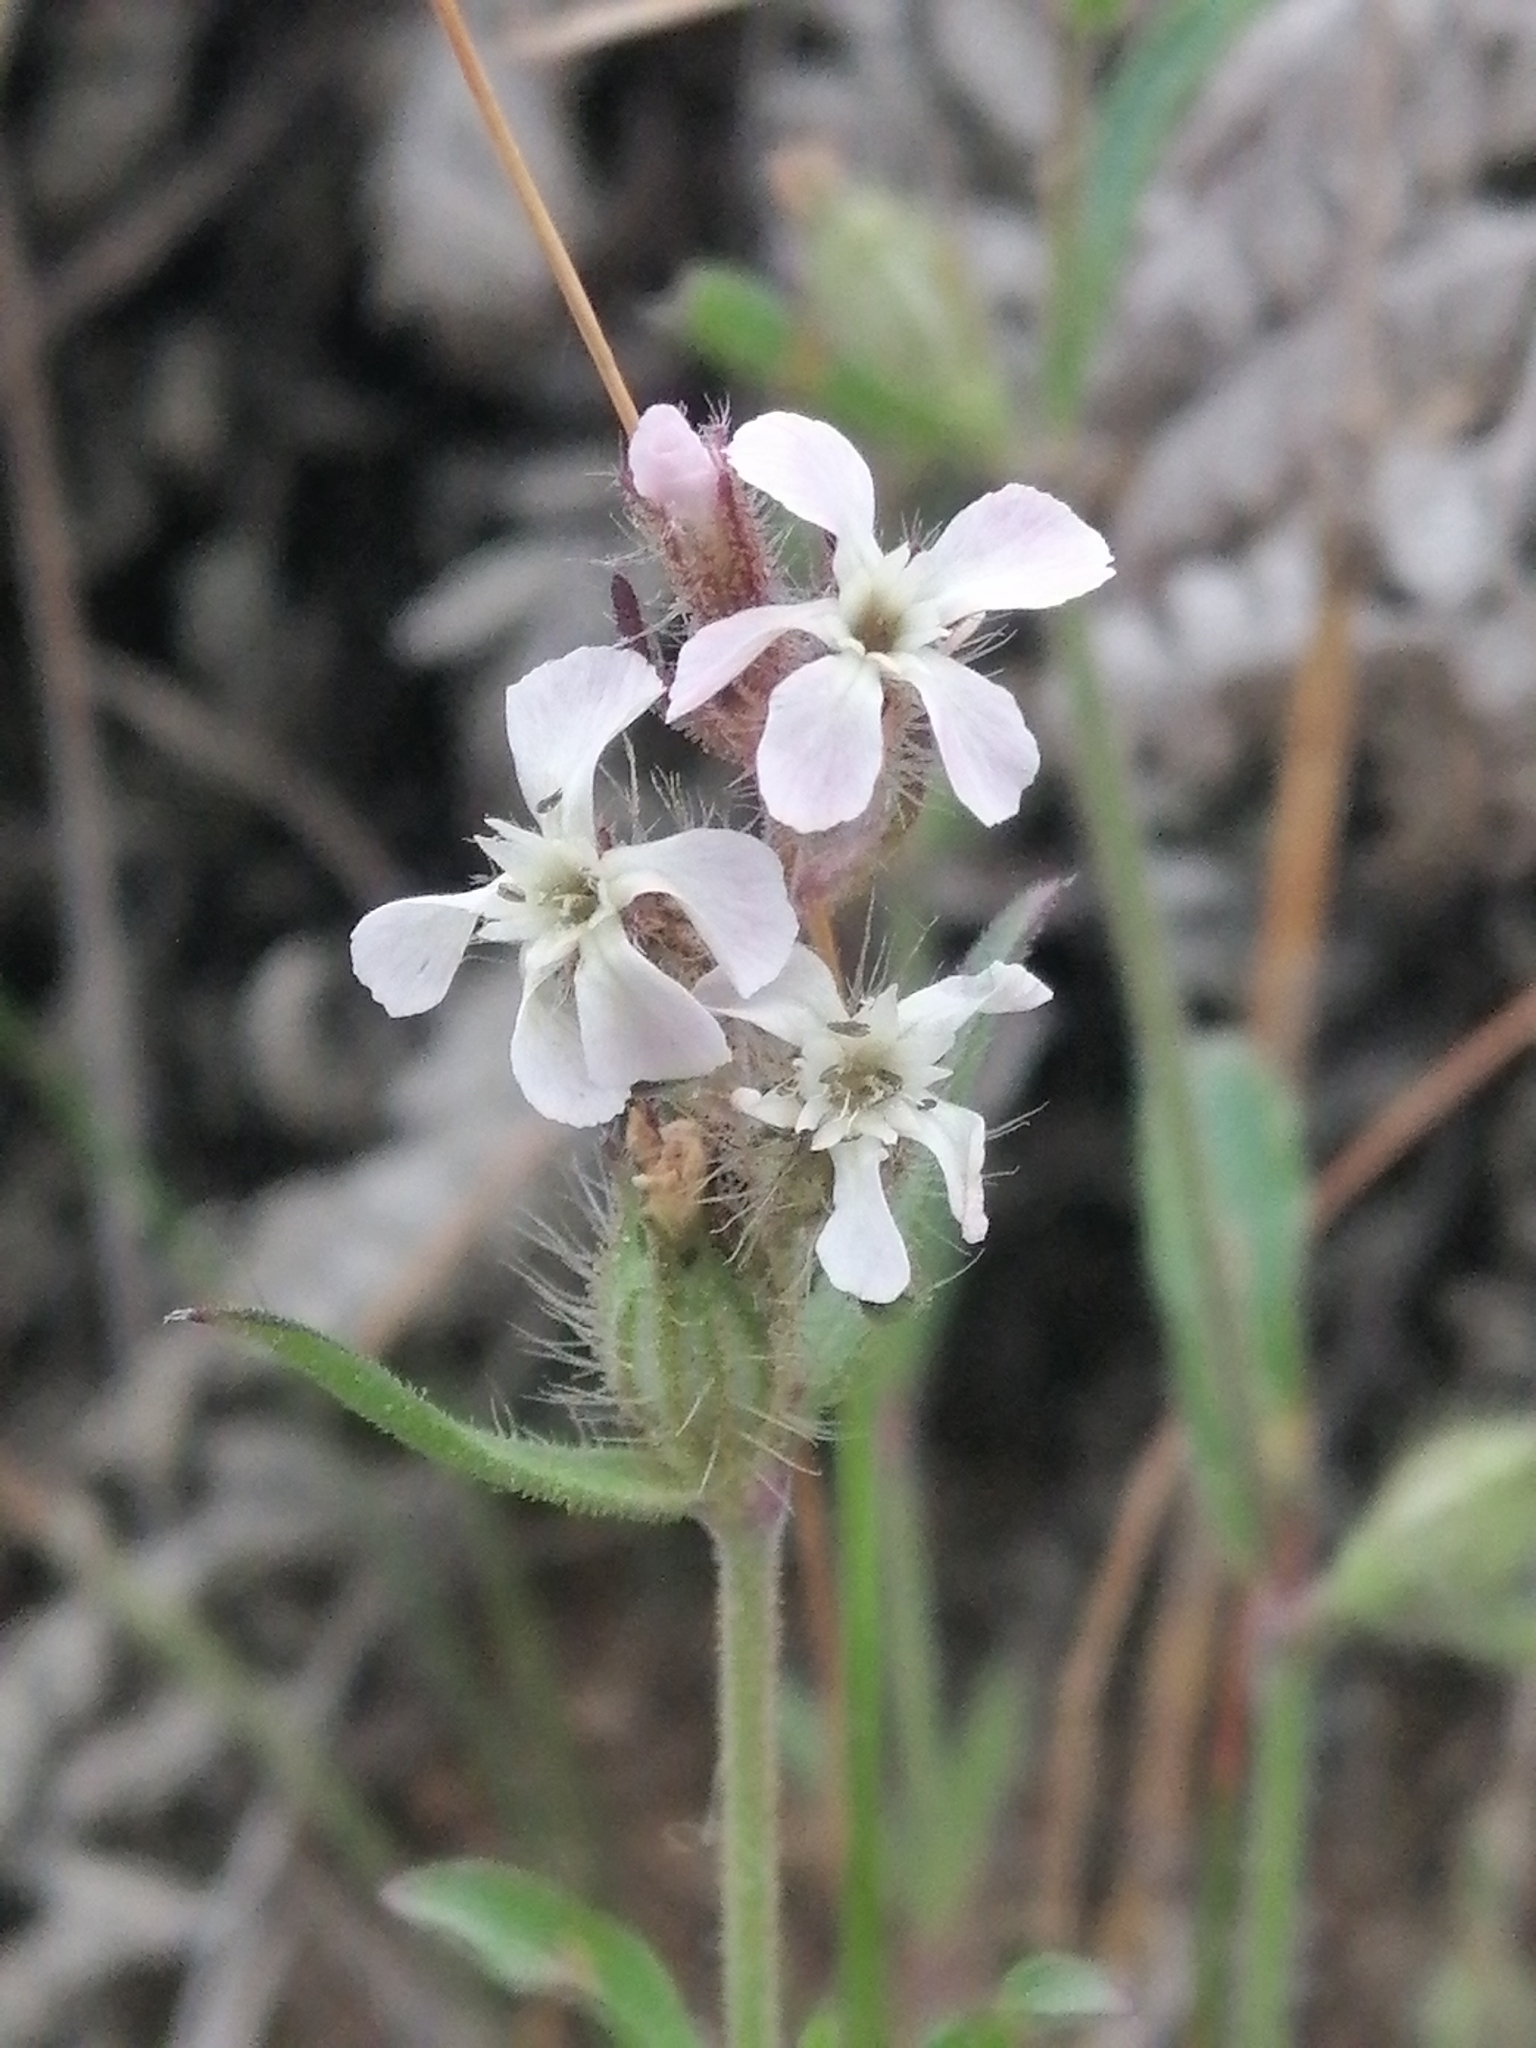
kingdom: Plantae
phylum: Tracheophyta
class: Magnoliopsida
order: Caryophyllales
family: Caryophyllaceae
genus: Silene
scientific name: Silene gallica
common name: Small-flowered catchfly
